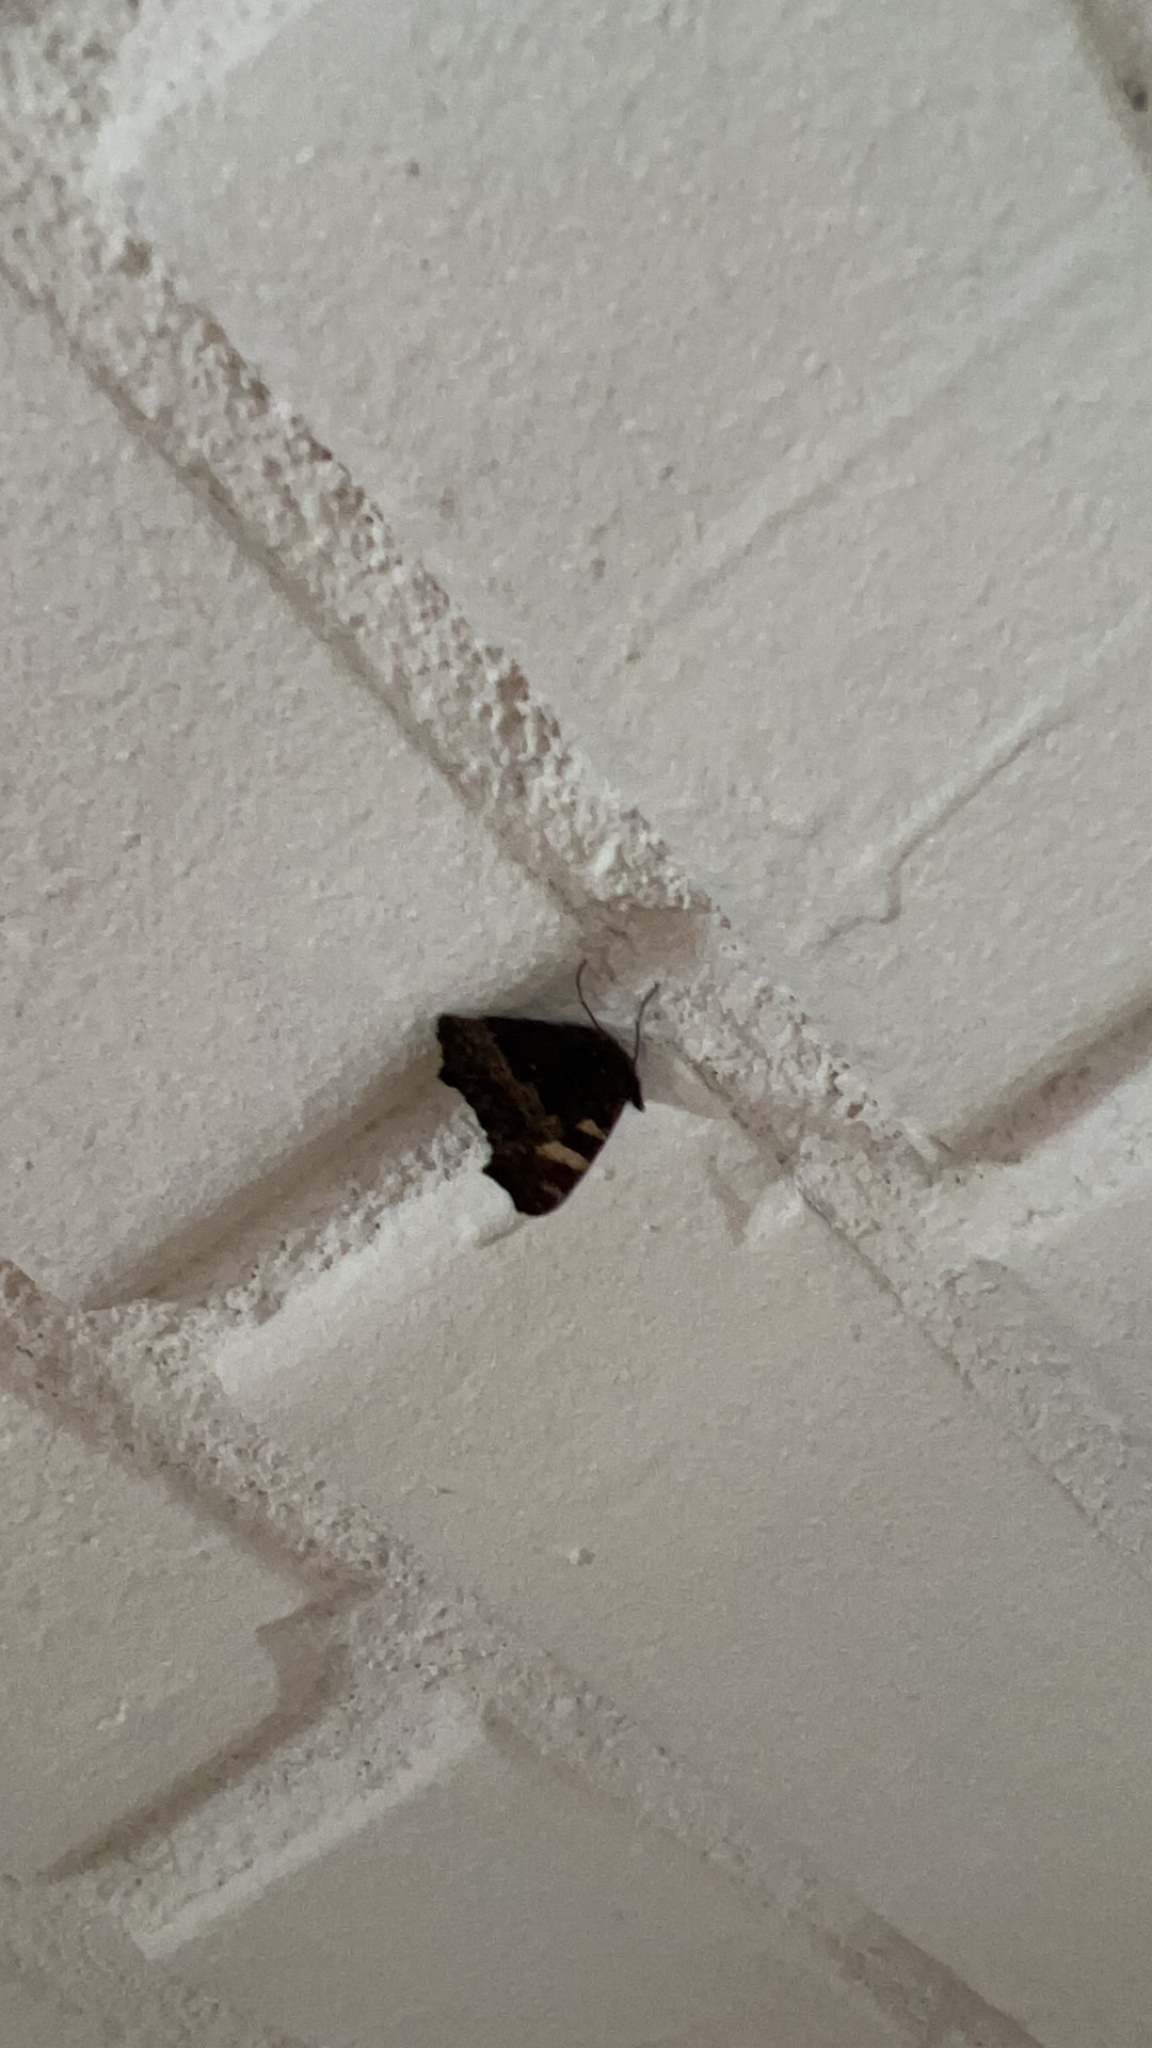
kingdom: Animalia
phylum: Arthropoda
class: Insecta
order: Lepidoptera
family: Nymphalidae
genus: Aglais
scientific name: Aglais urticae
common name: Small tortoiseshell
